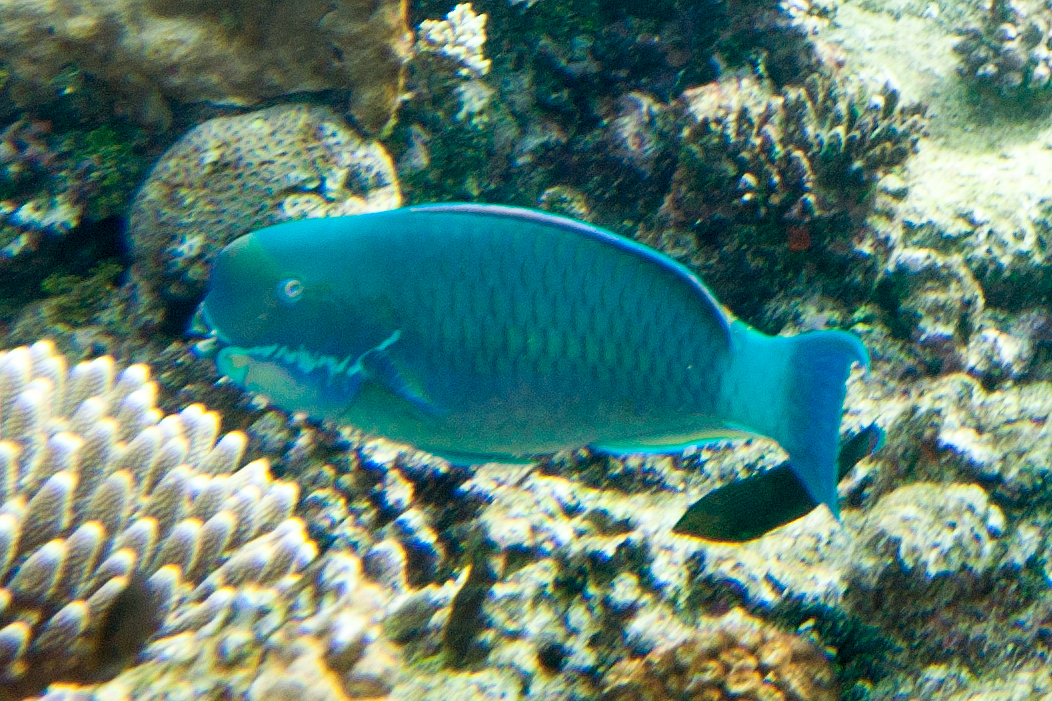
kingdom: Animalia
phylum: Chordata
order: Perciformes
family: Scaridae
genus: Chlorurus
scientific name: Chlorurus microrhinos
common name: Steephead parrotfish
